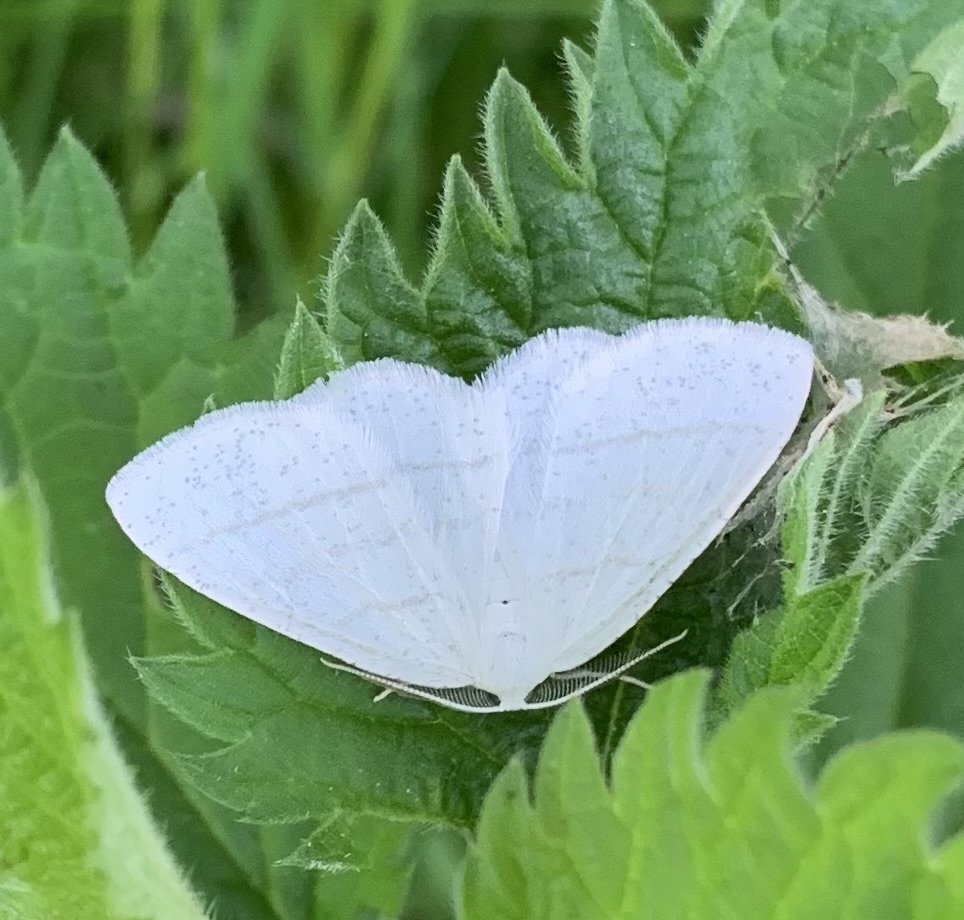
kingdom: Animalia
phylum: Arthropoda
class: Insecta
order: Lepidoptera
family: Geometridae
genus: Cabera
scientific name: Cabera pusaria
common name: Common white wave
